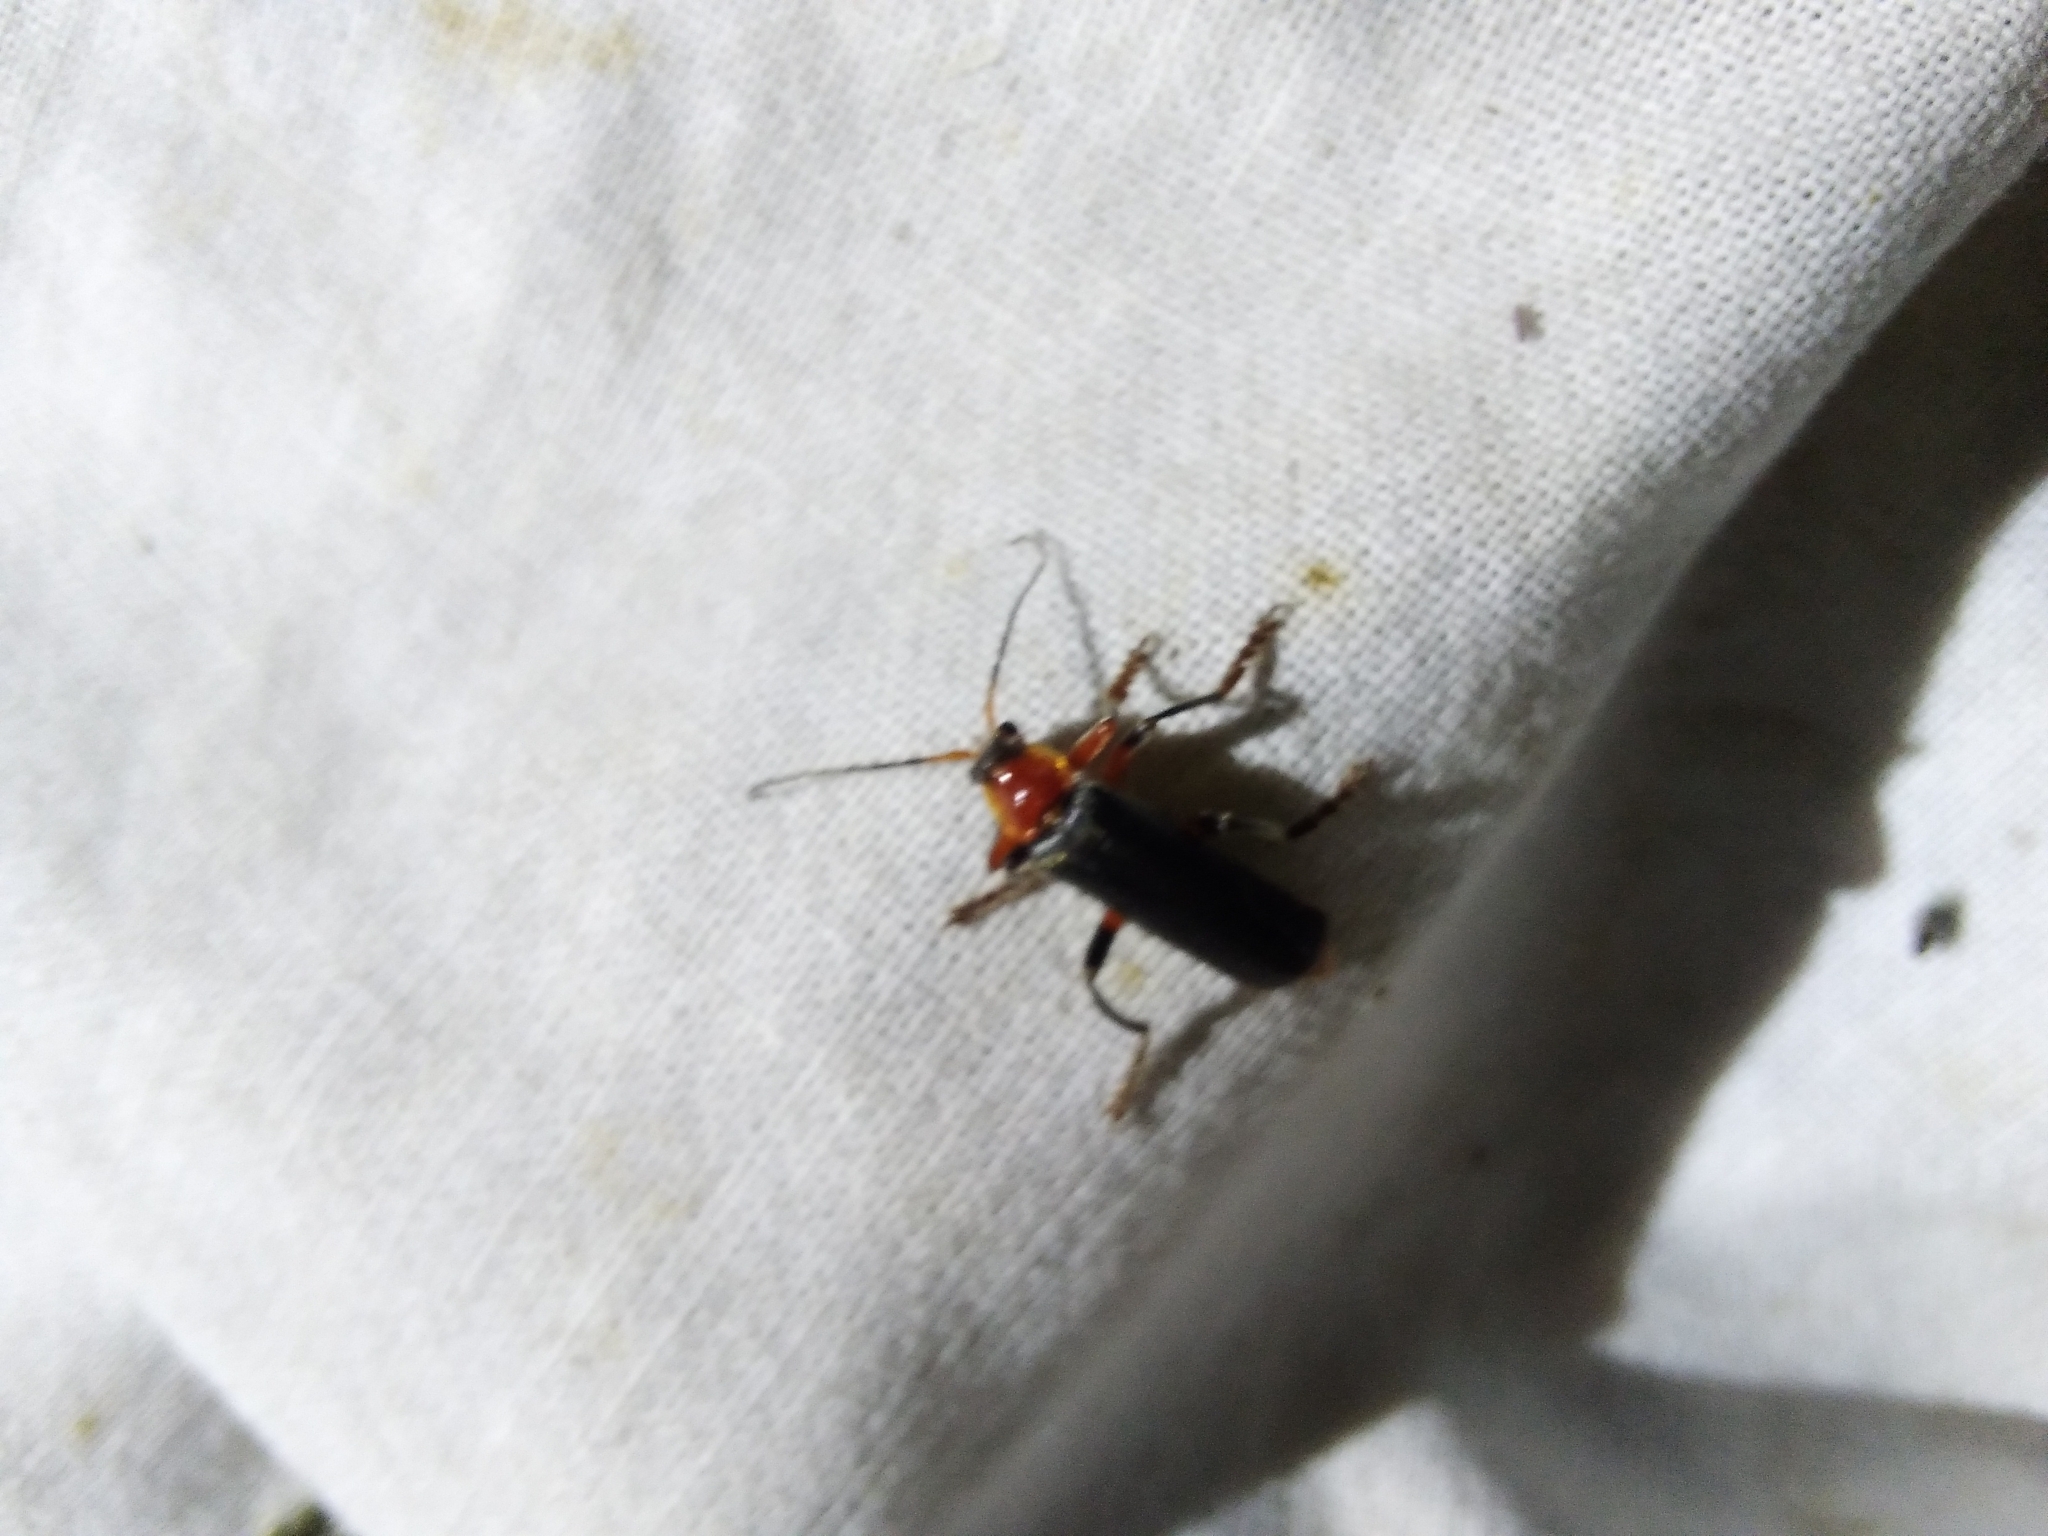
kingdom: Animalia
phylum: Arthropoda
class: Insecta
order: Coleoptera
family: Cantharidae
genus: Cantharis
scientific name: Cantharis pellucida
